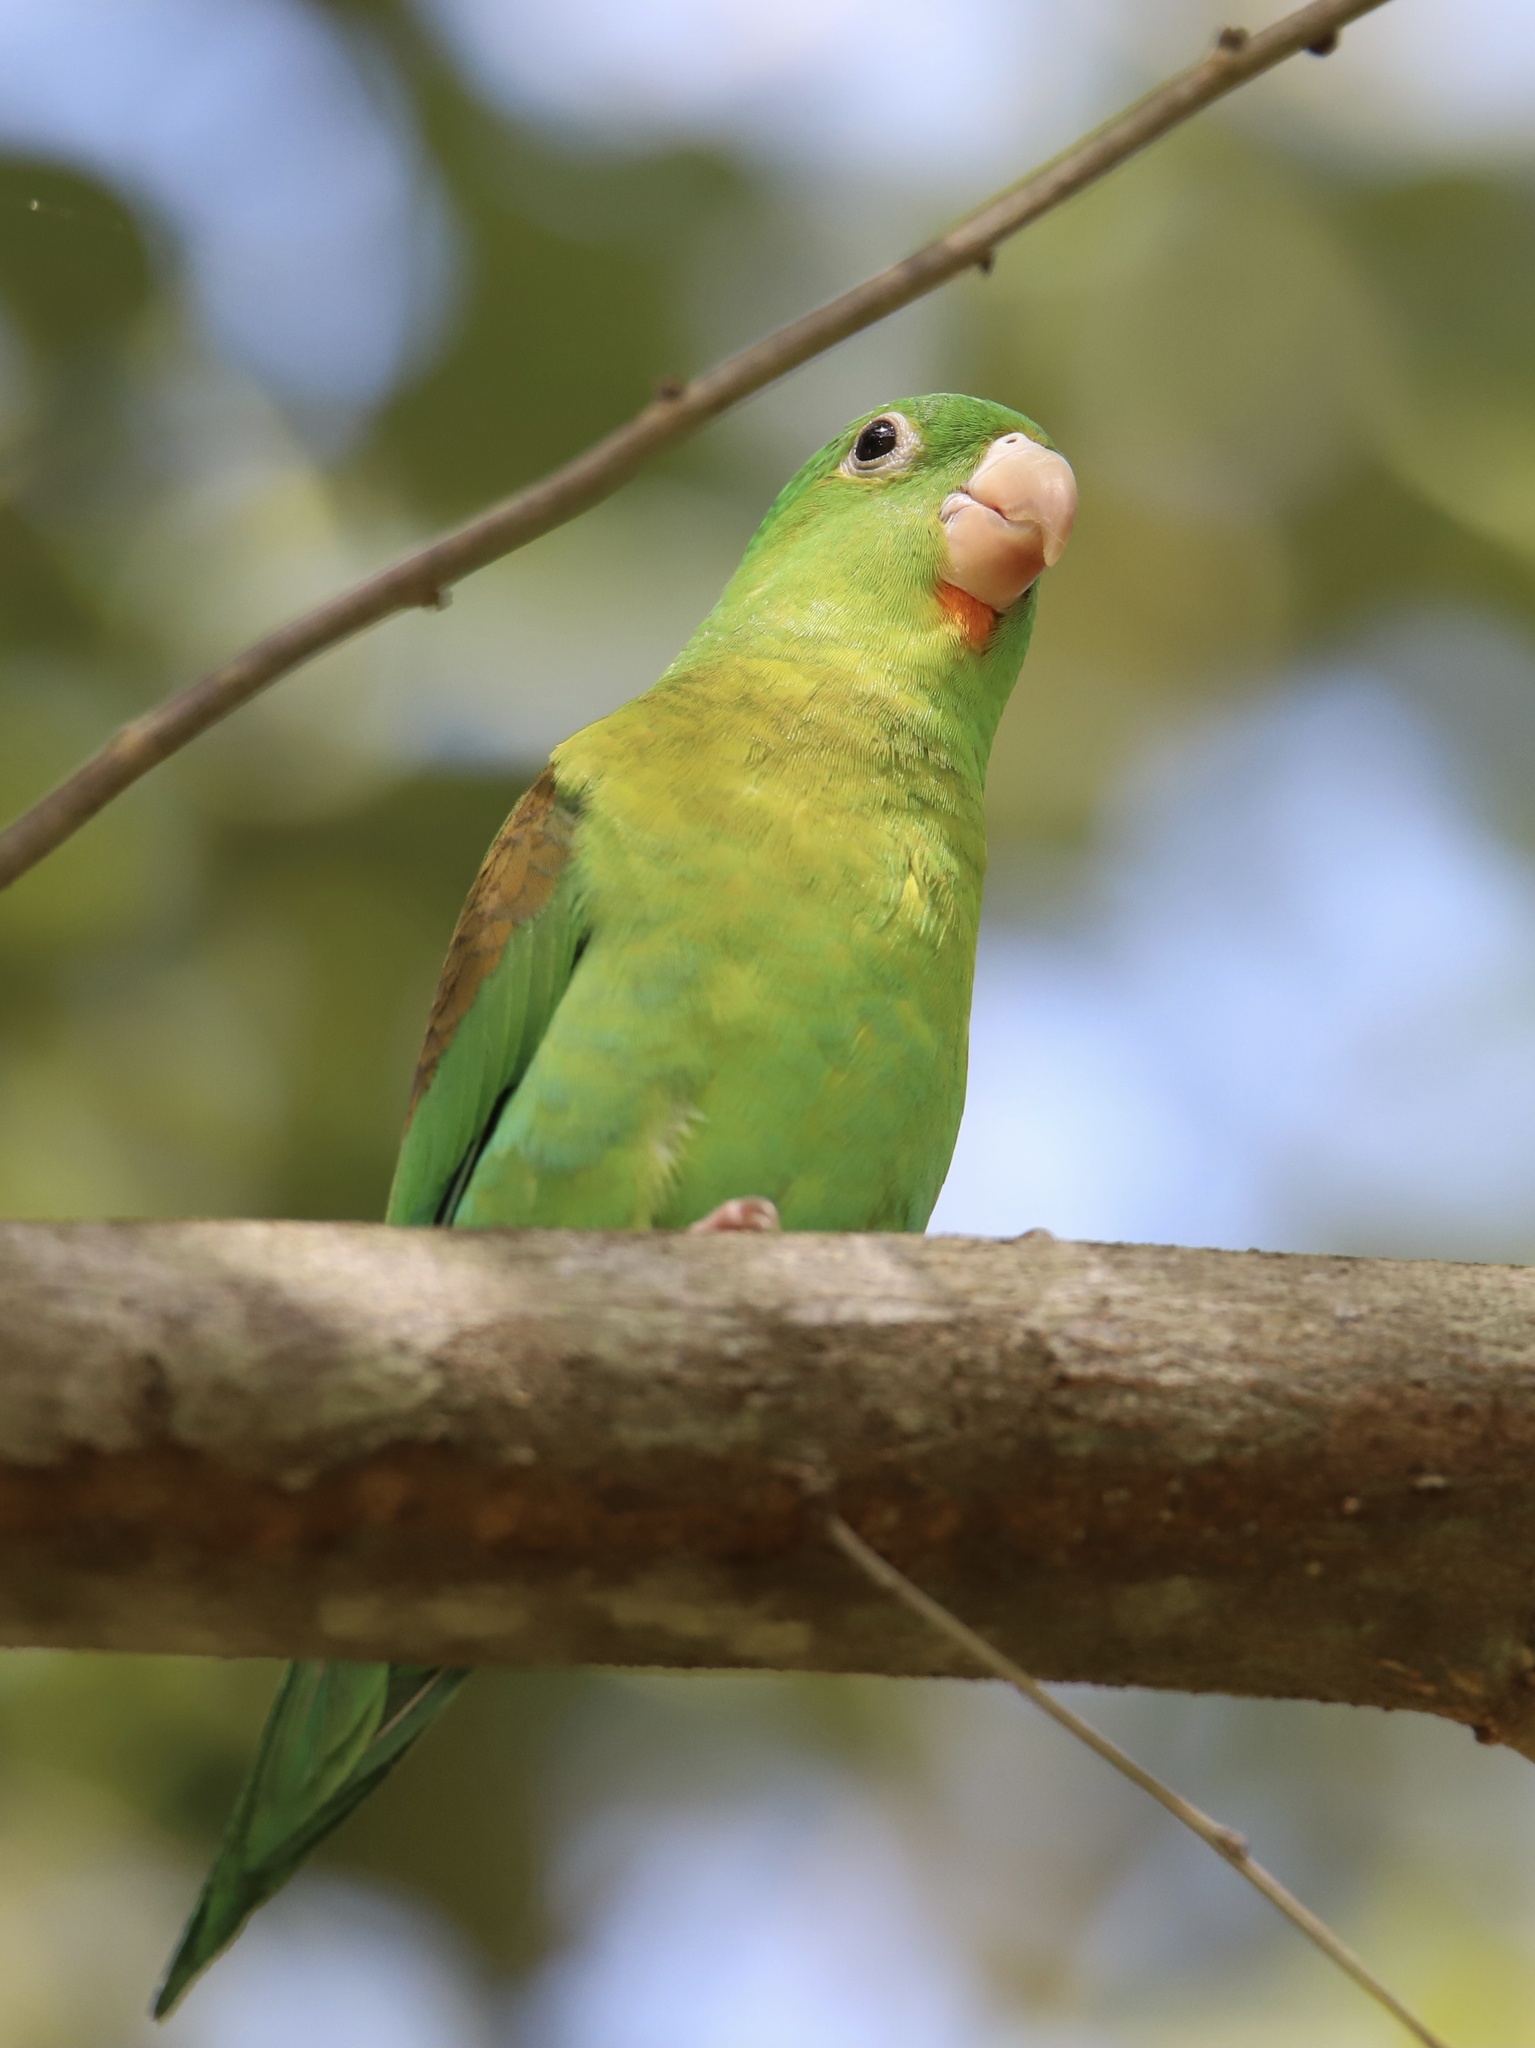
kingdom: Animalia
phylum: Chordata
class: Aves
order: Psittaciformes
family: Psittacidae
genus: Brotogeris
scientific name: Brotogeris jugularis
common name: Orange-chinned parakeet
